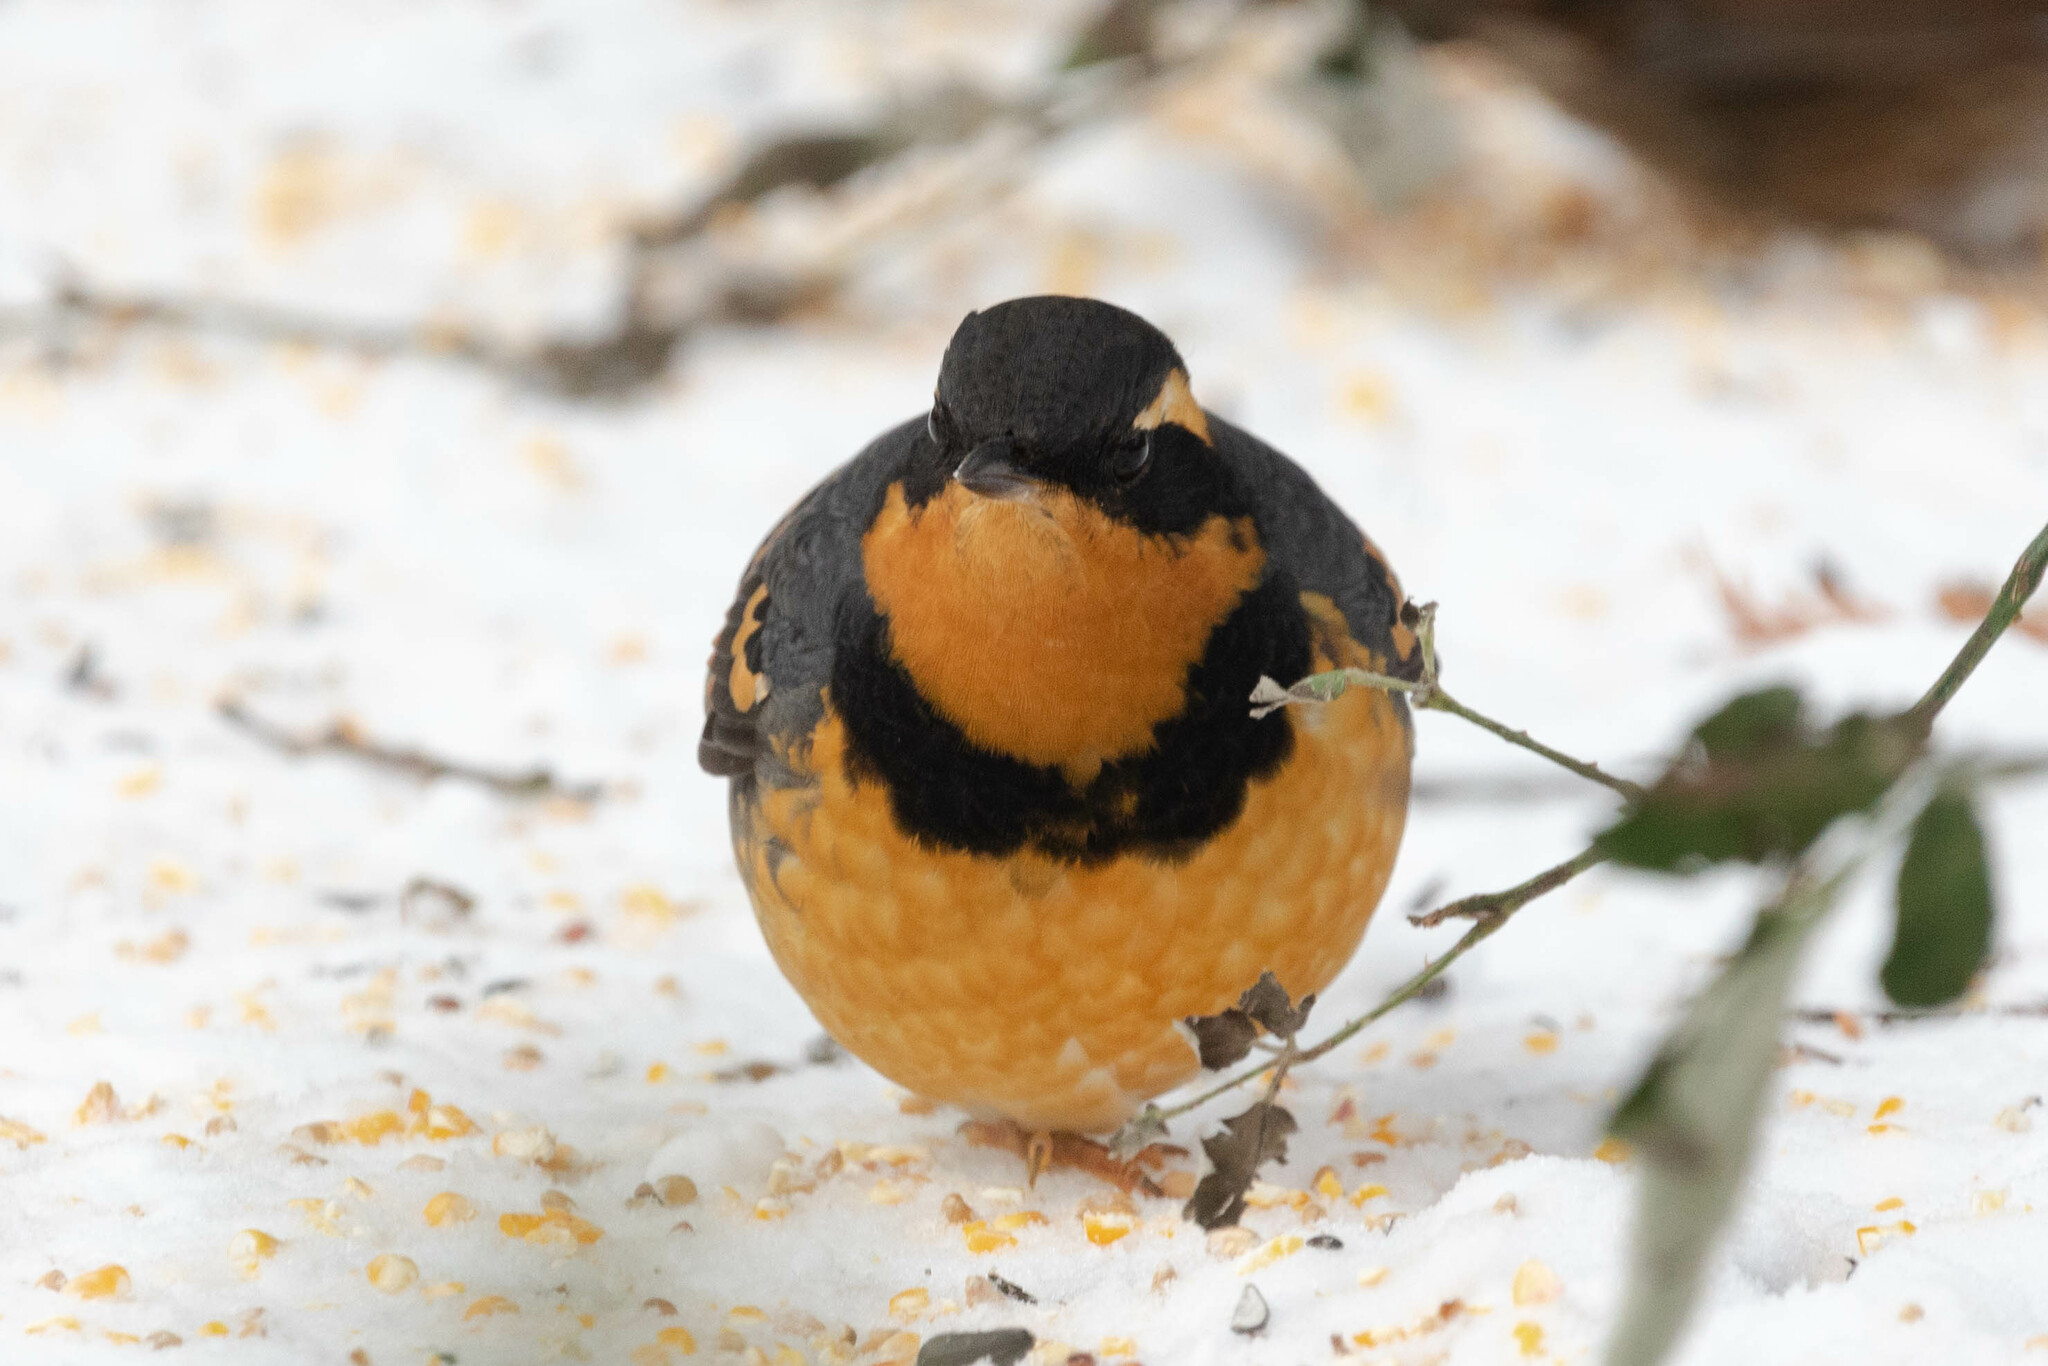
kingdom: Animalia
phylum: Chordata
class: Aves
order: Passeriformes
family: Turdidae
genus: Ixoreus
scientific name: Ixoreus naevius
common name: Varied thrush
